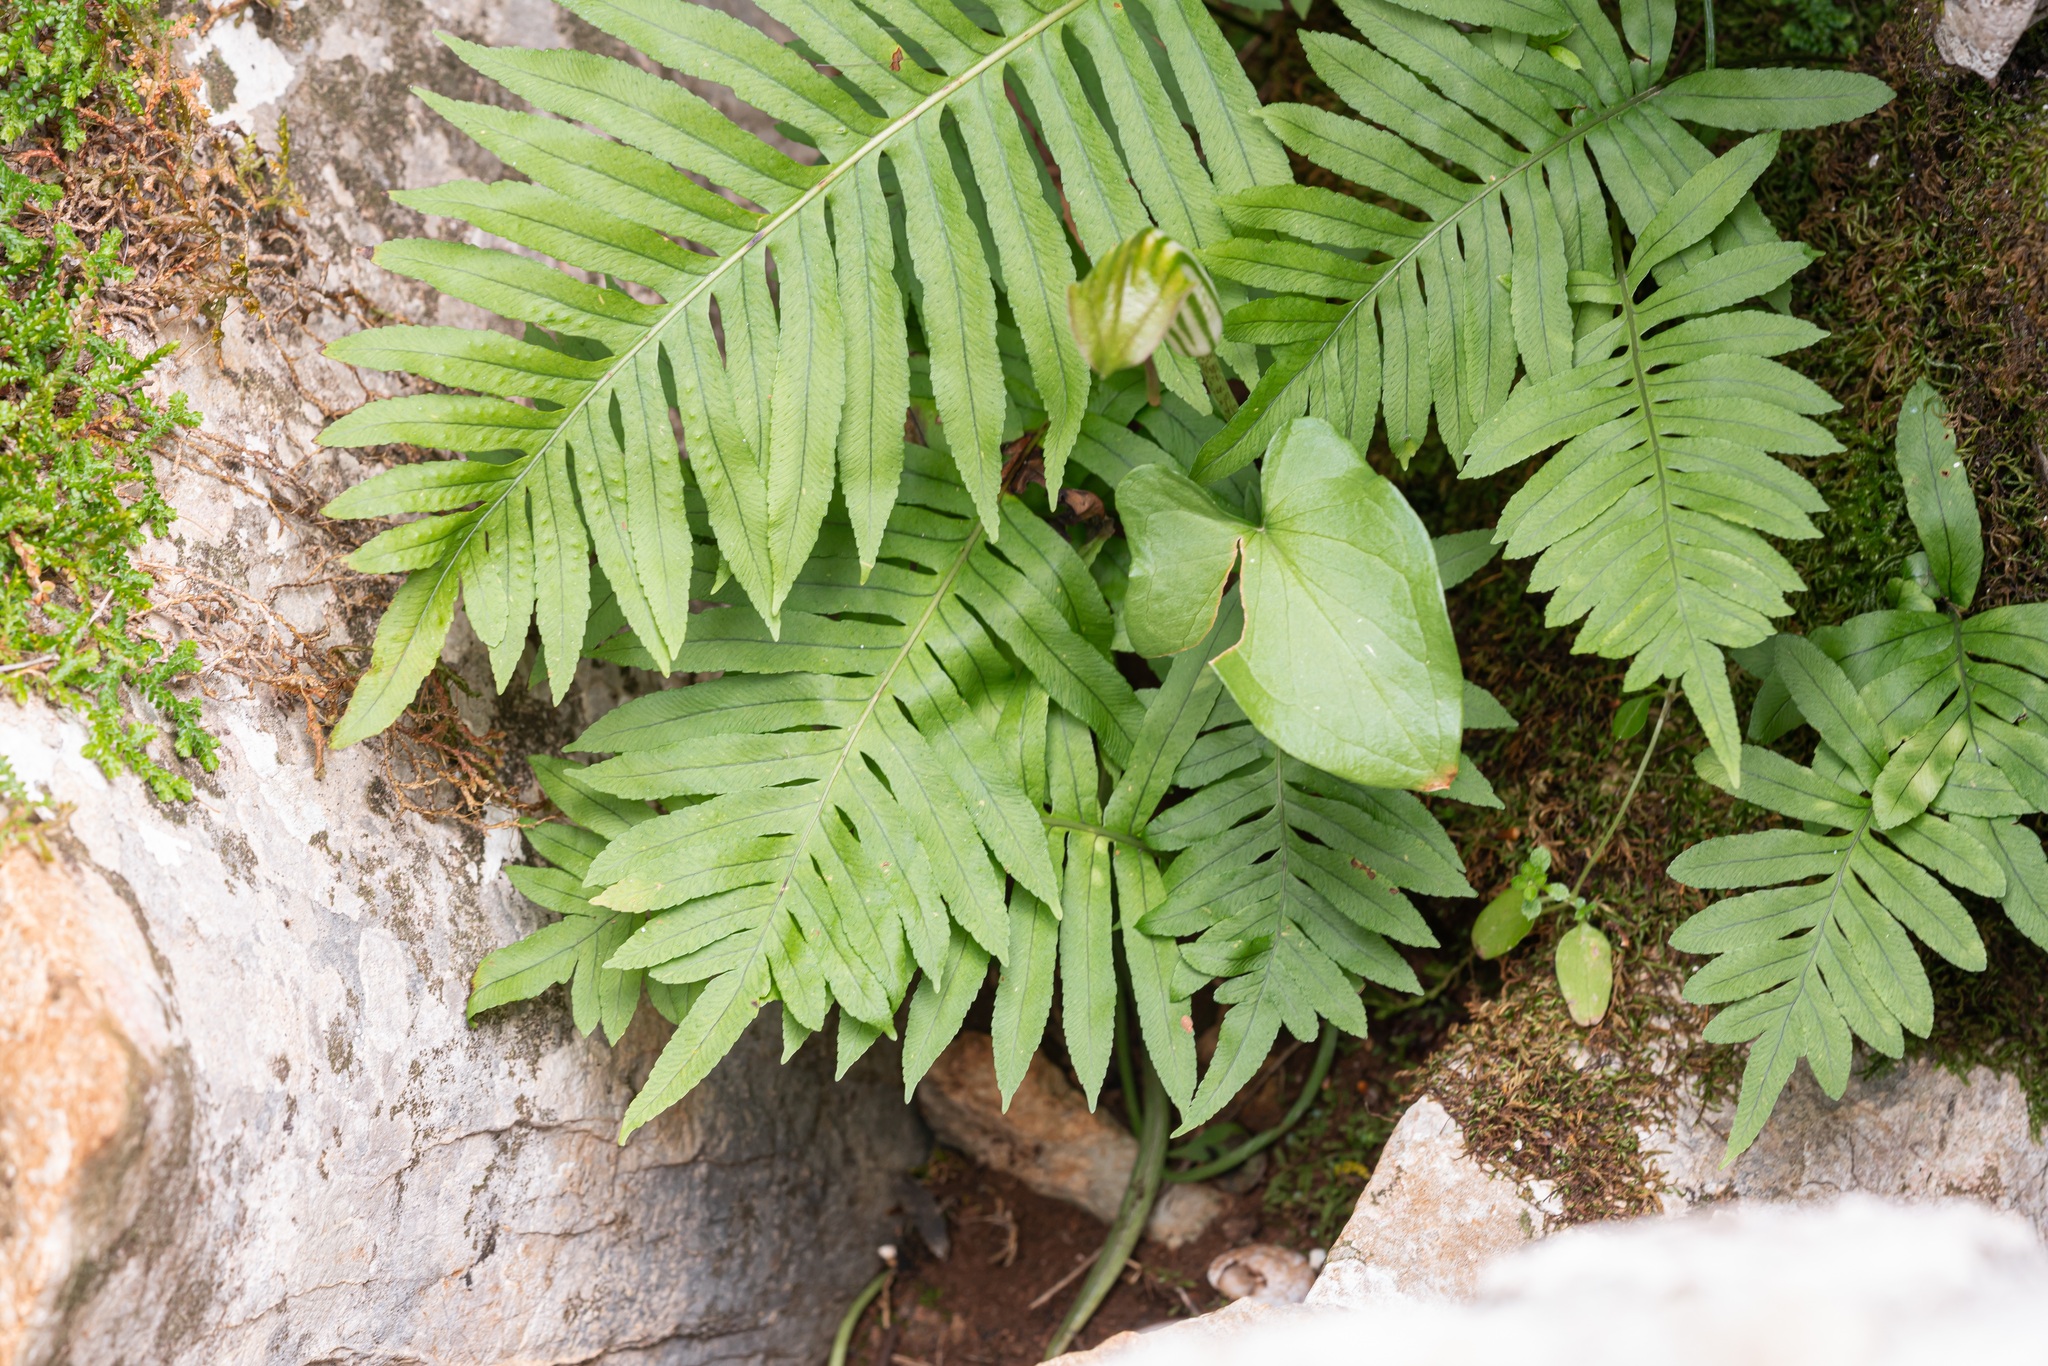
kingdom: Plantae
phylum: Tracheophyta
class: Polypodiopsida
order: Polypodiales
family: Polypodiaceae
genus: Polypodium
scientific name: Polypodium cambricum
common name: Southern polypody
